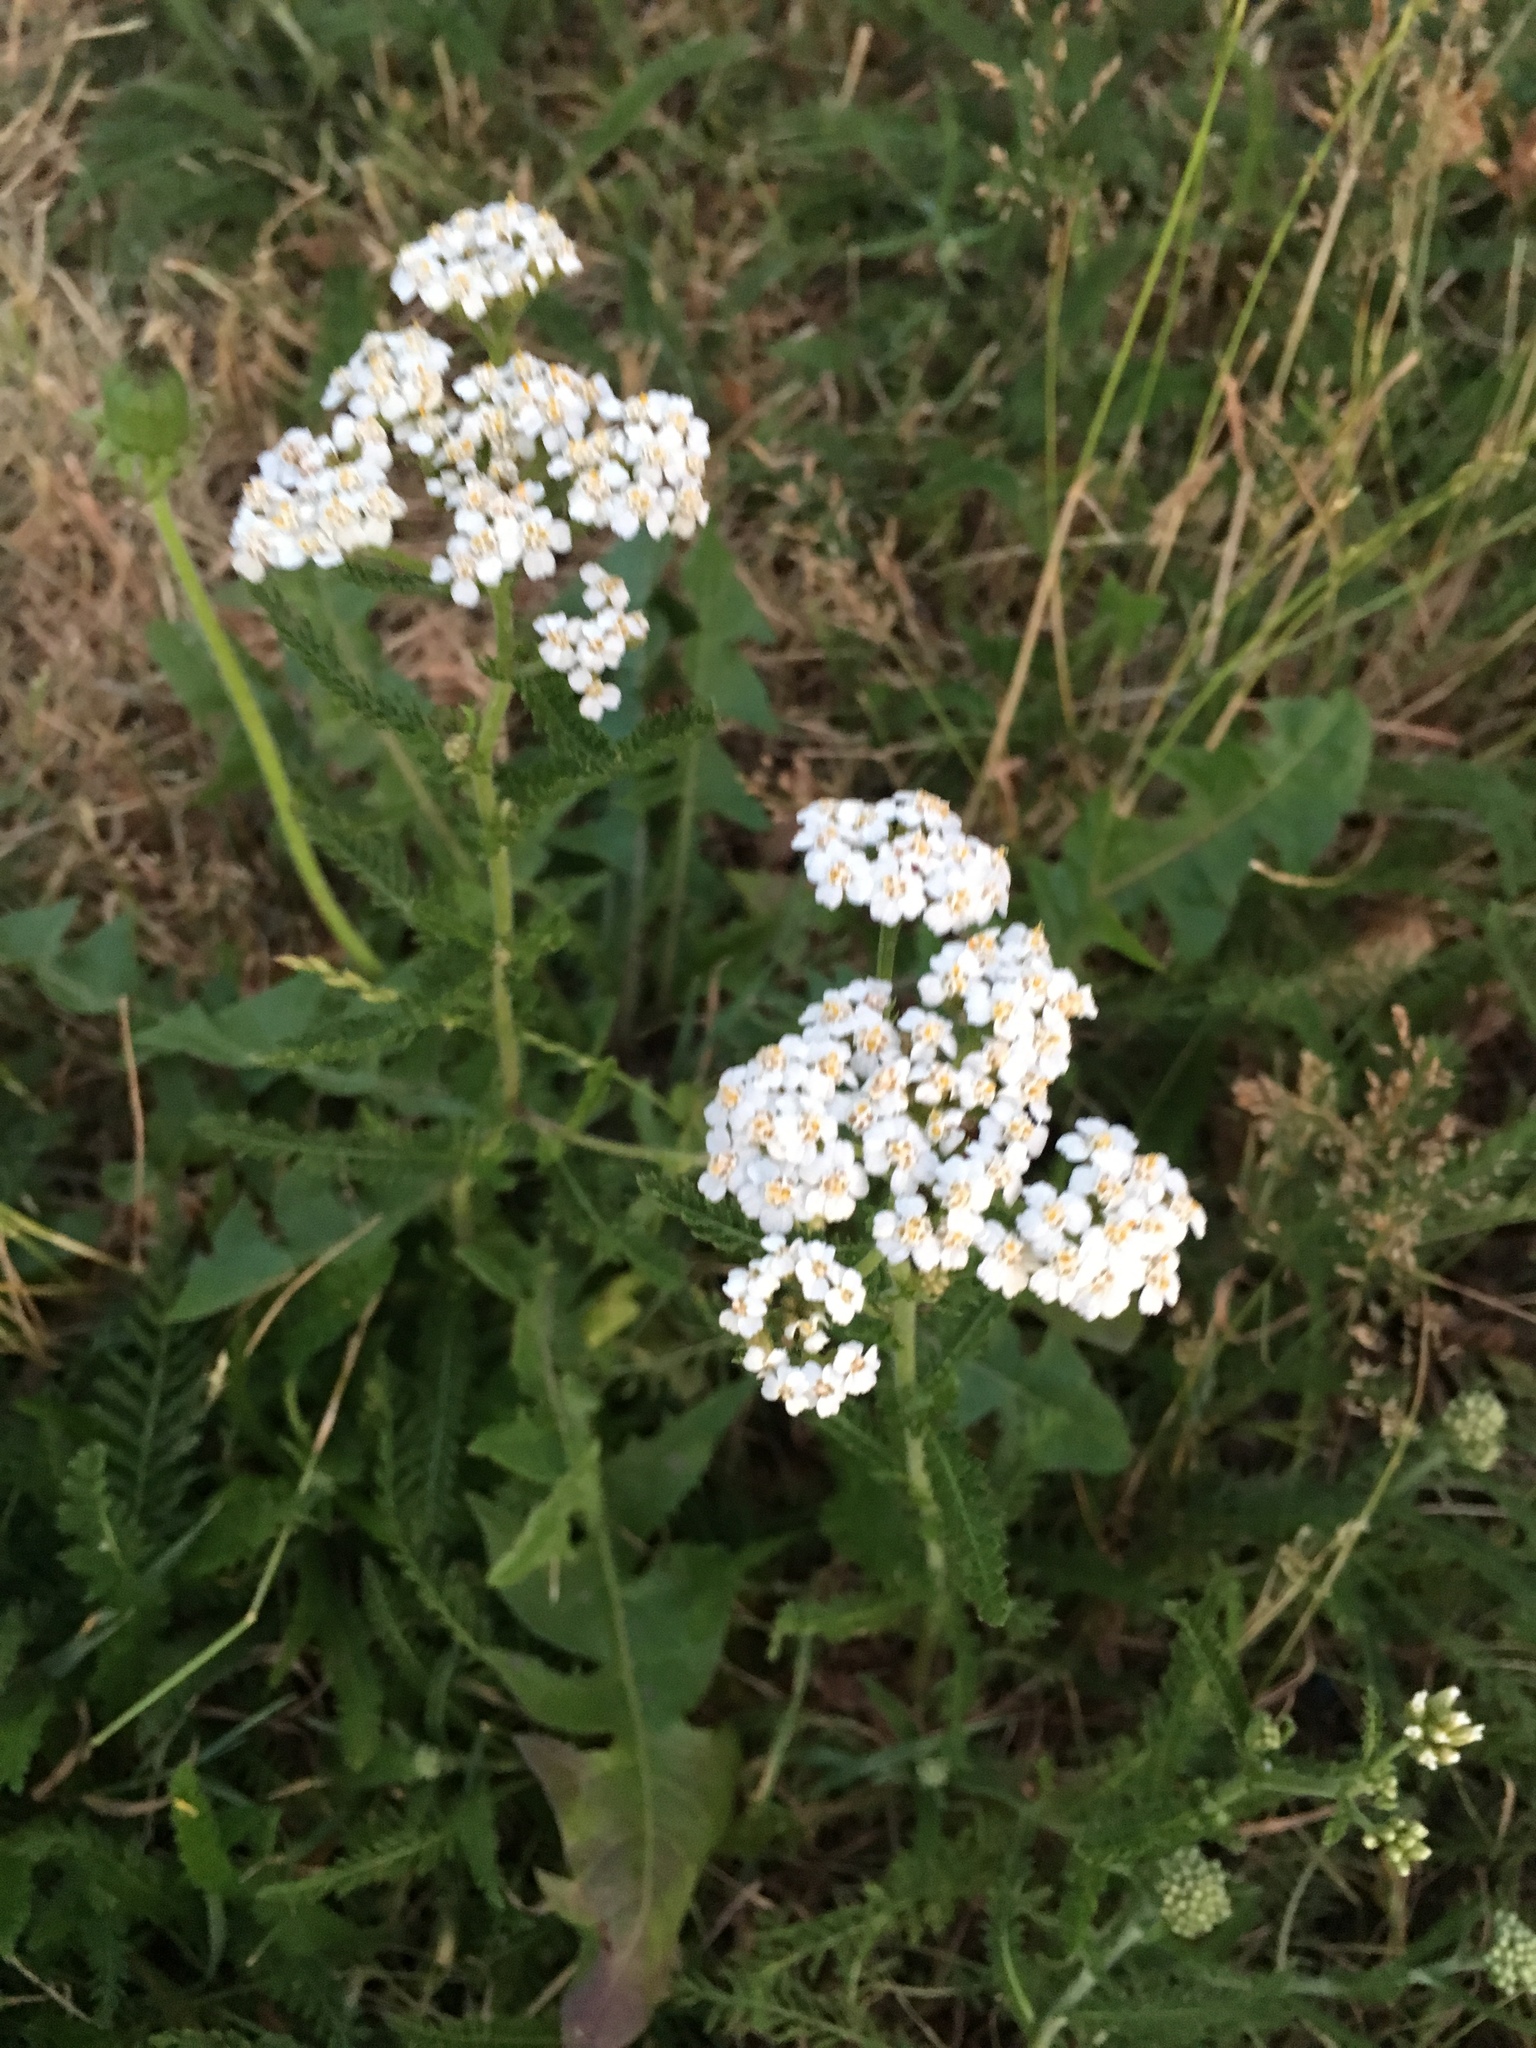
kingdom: Plantae
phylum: Tracheophyta
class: Magnoliopsida
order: Asterales
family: Asteraceae
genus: Achillea
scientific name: Achillea millefolium
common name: Yarrow
